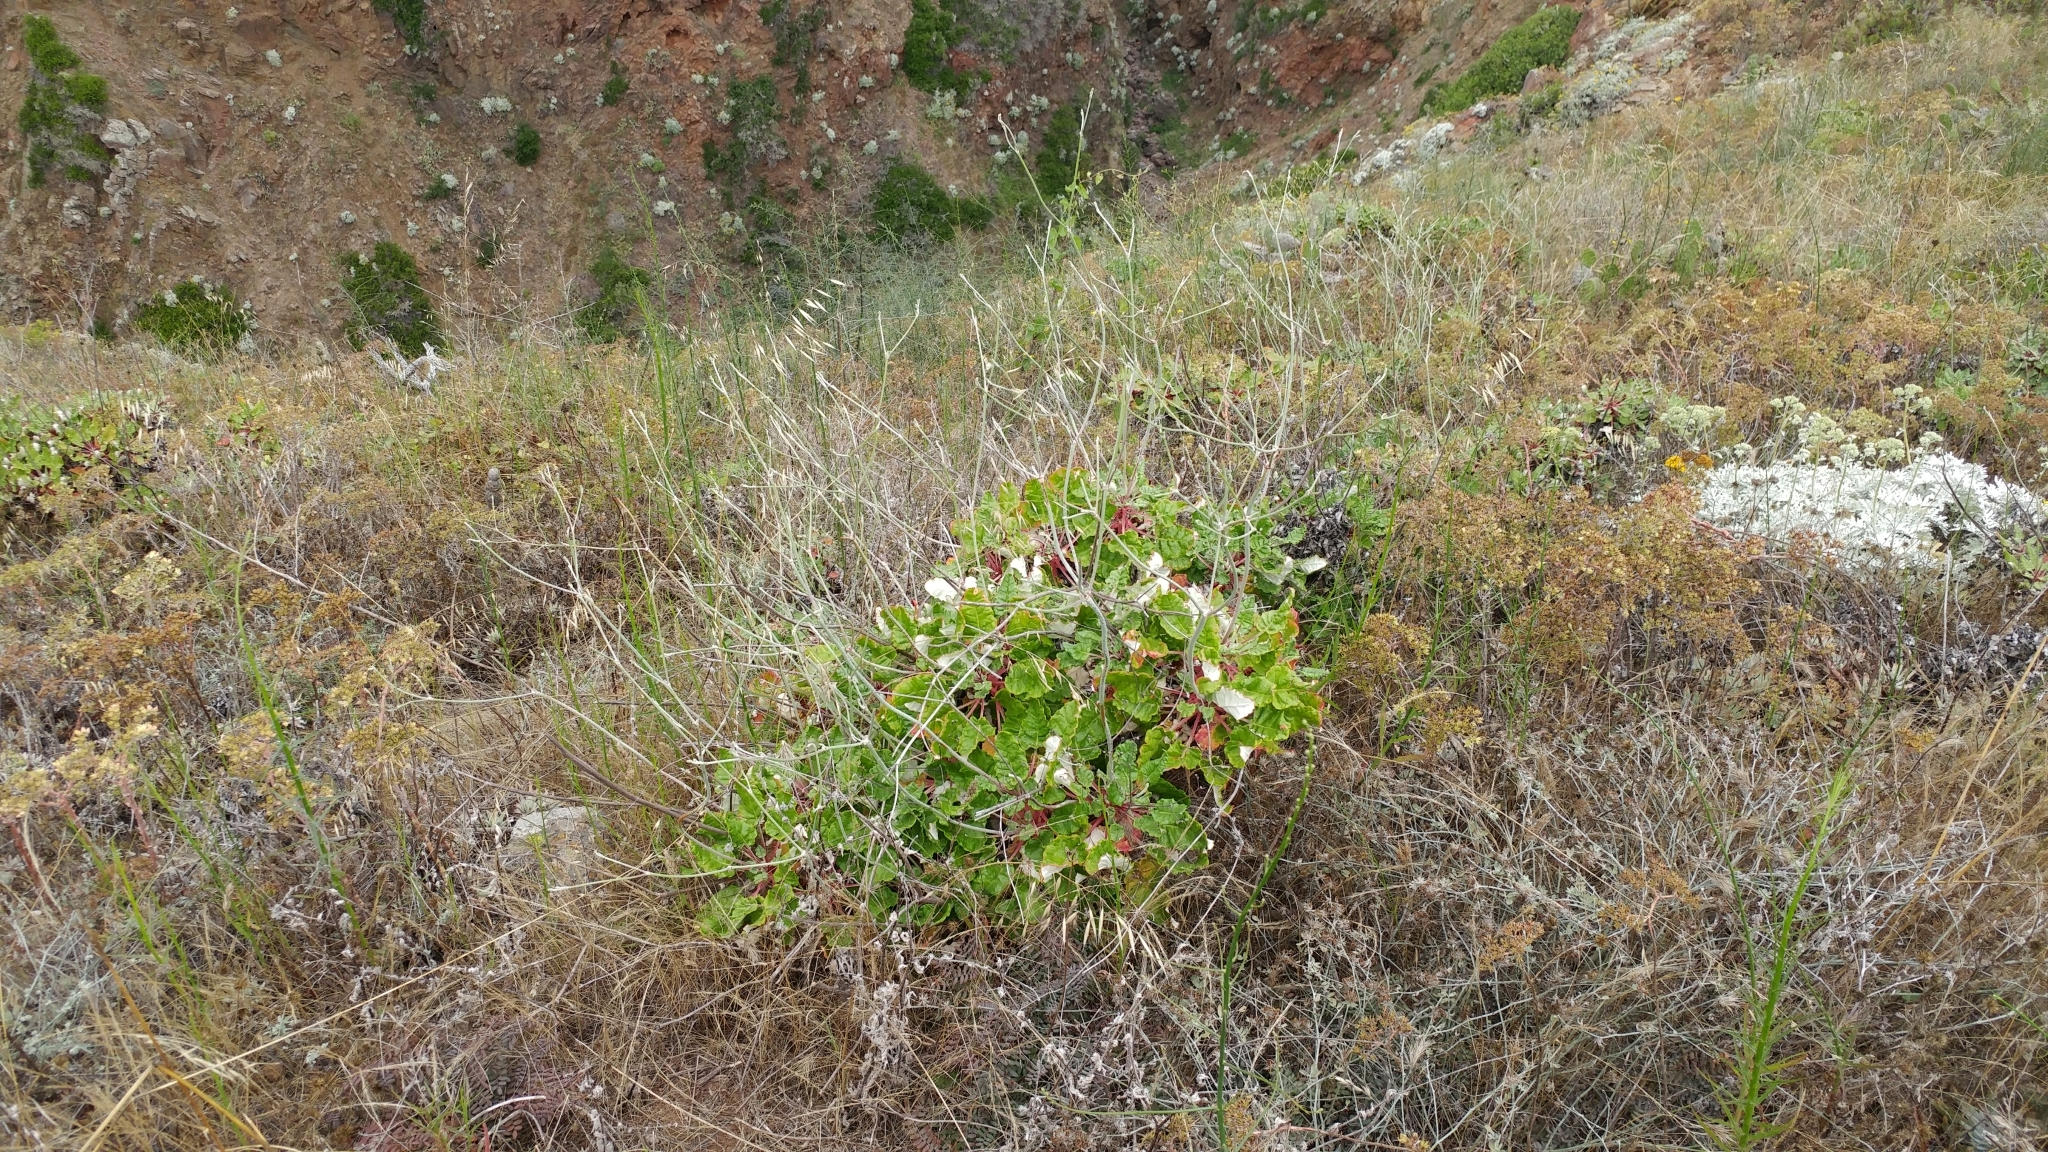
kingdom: Plantae
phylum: Tracheophyta
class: Magnoliopsida
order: Caryophyllales
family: Polygonaceae
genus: Eriogonum
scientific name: Eriogonum grande
